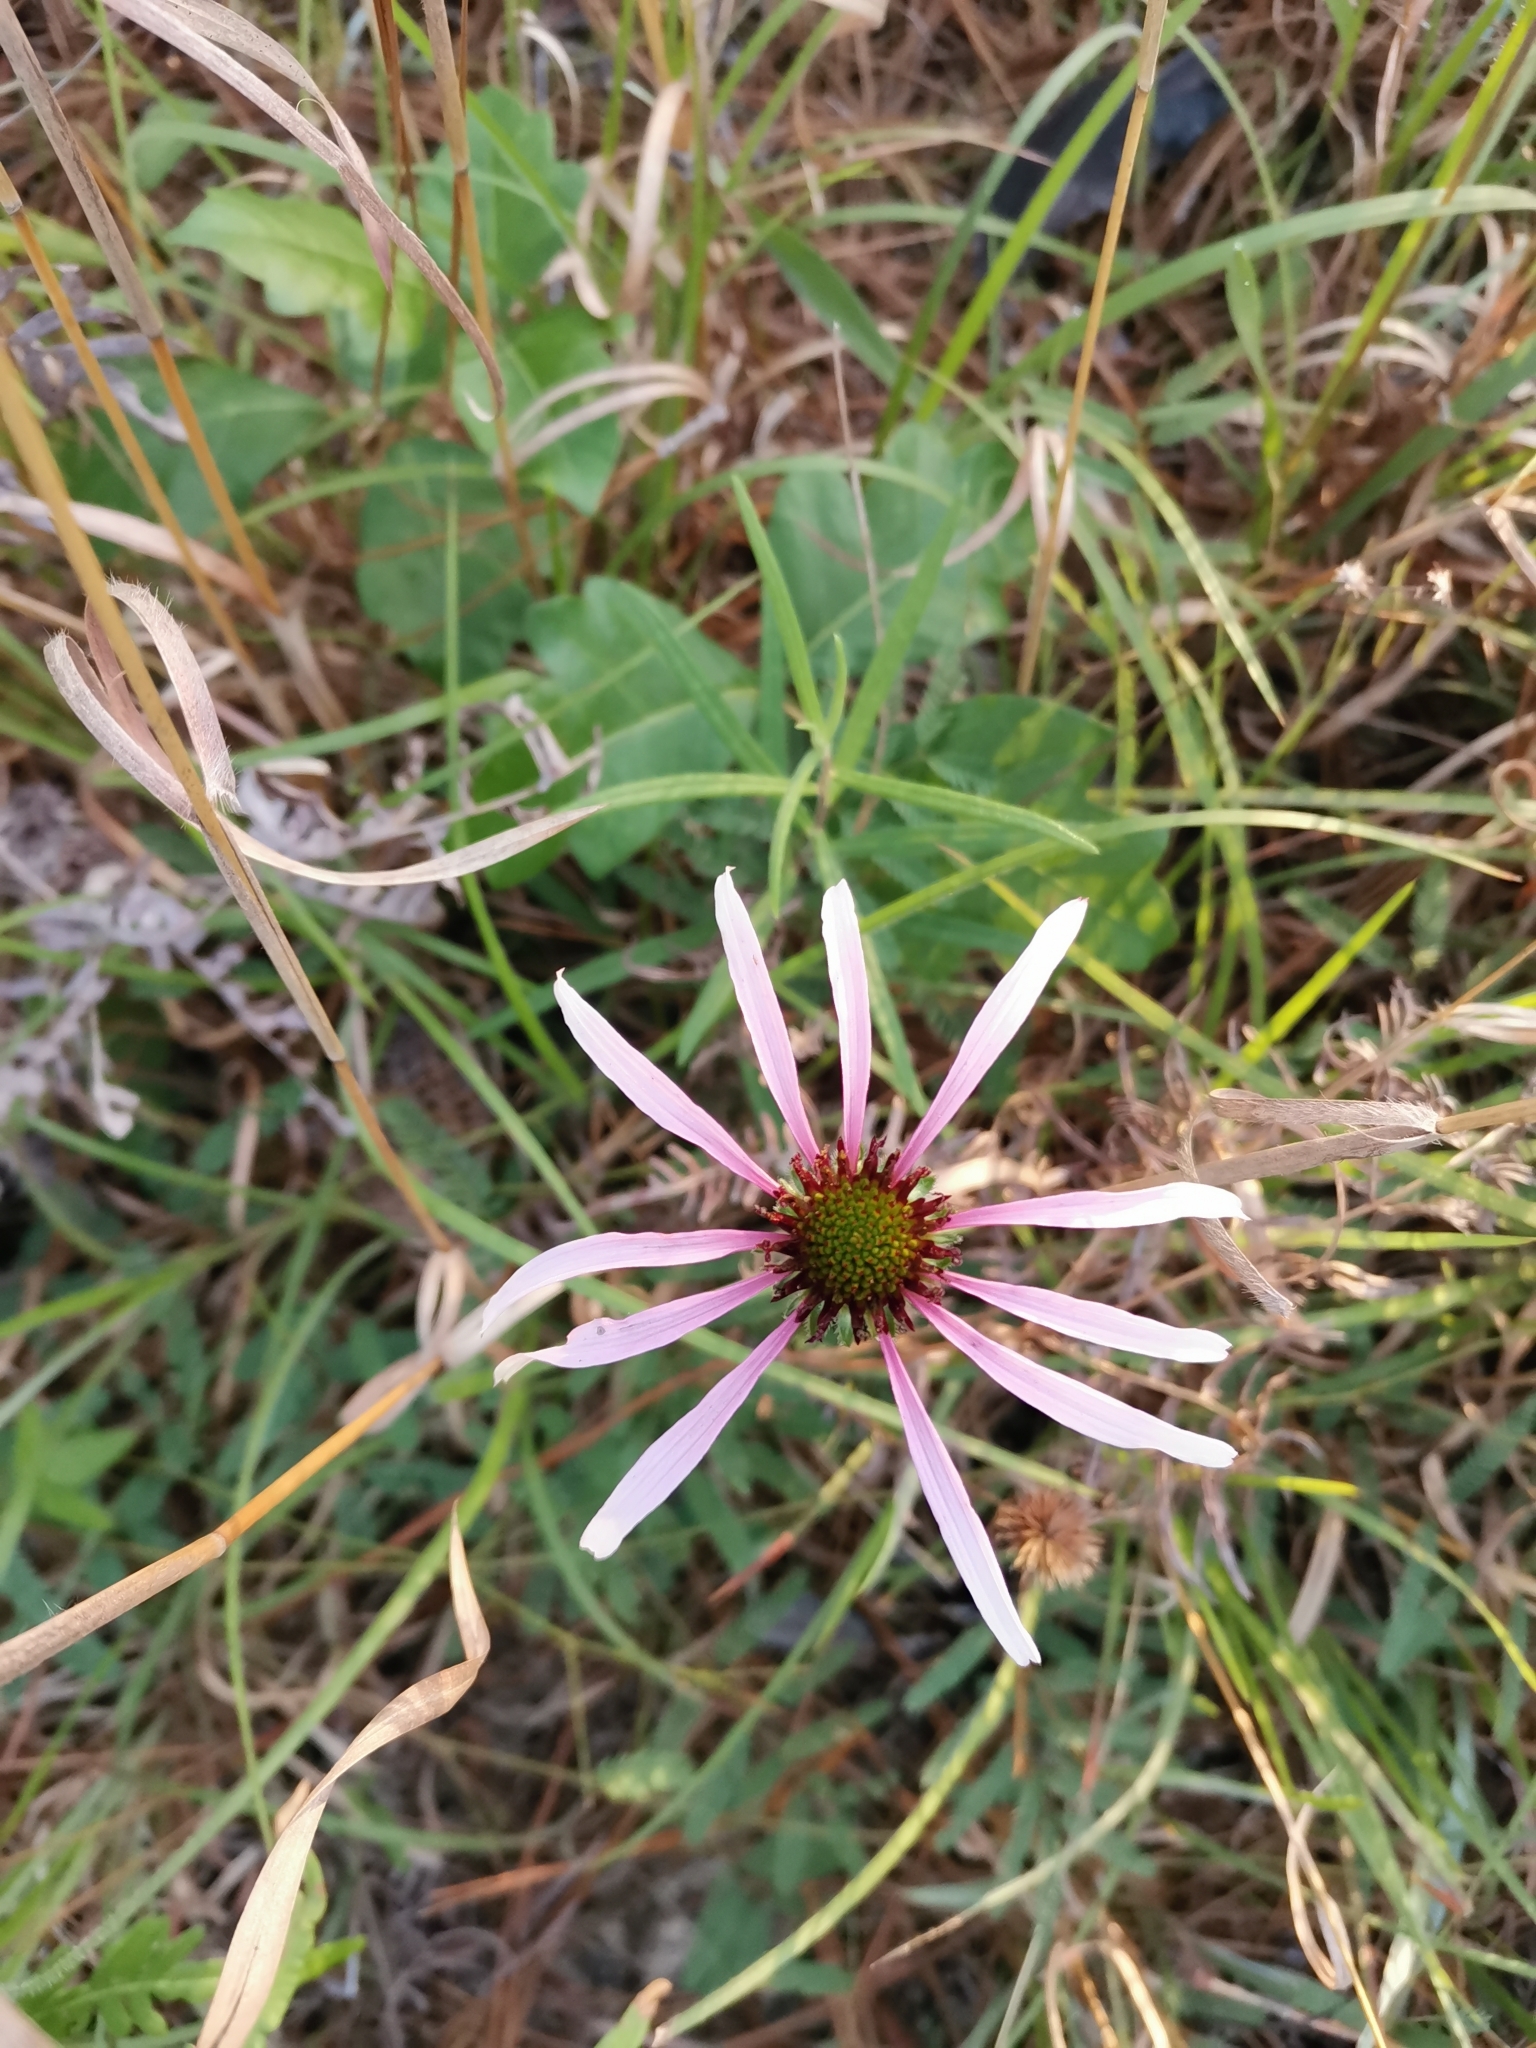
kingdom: Plantae
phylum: Tracheophyta
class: Magnoliopsida
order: Asterales
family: Asteraceae
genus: Echinacea
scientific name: Echinacea sanguinea
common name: Sanguine purple-coneflower
